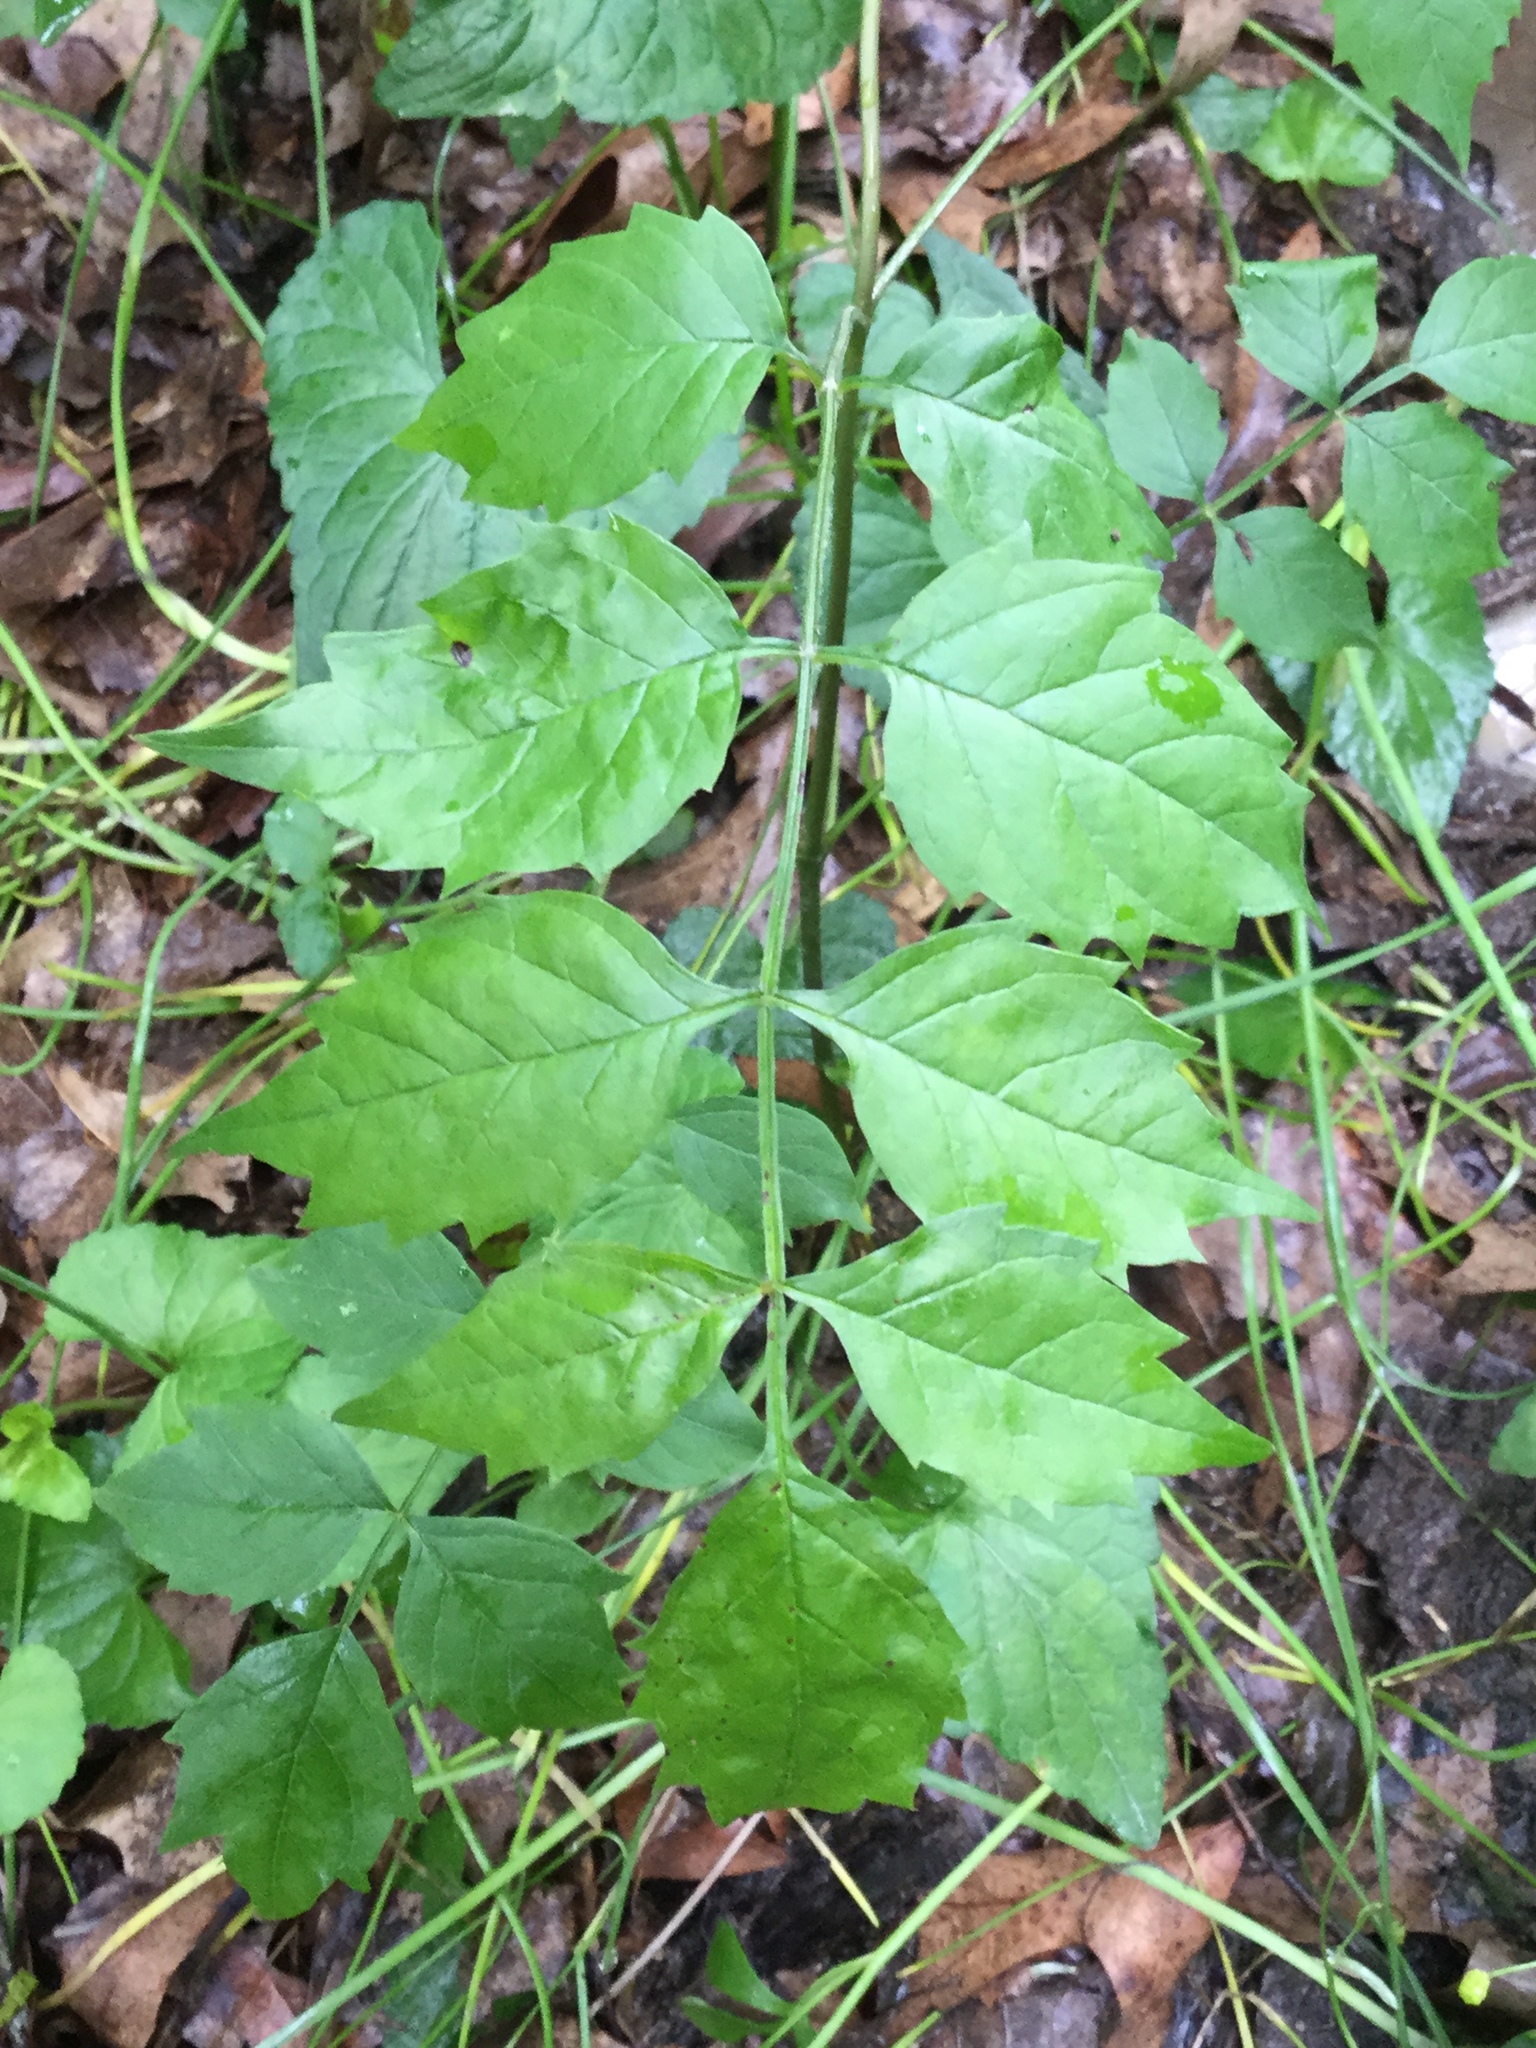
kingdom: Plantae
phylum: Tracheophyta
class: Magnoliopsida
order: Lamiales
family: Bignoniaceae
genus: Campsis
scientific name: Campsis radicans
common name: Trumpet-creeper
